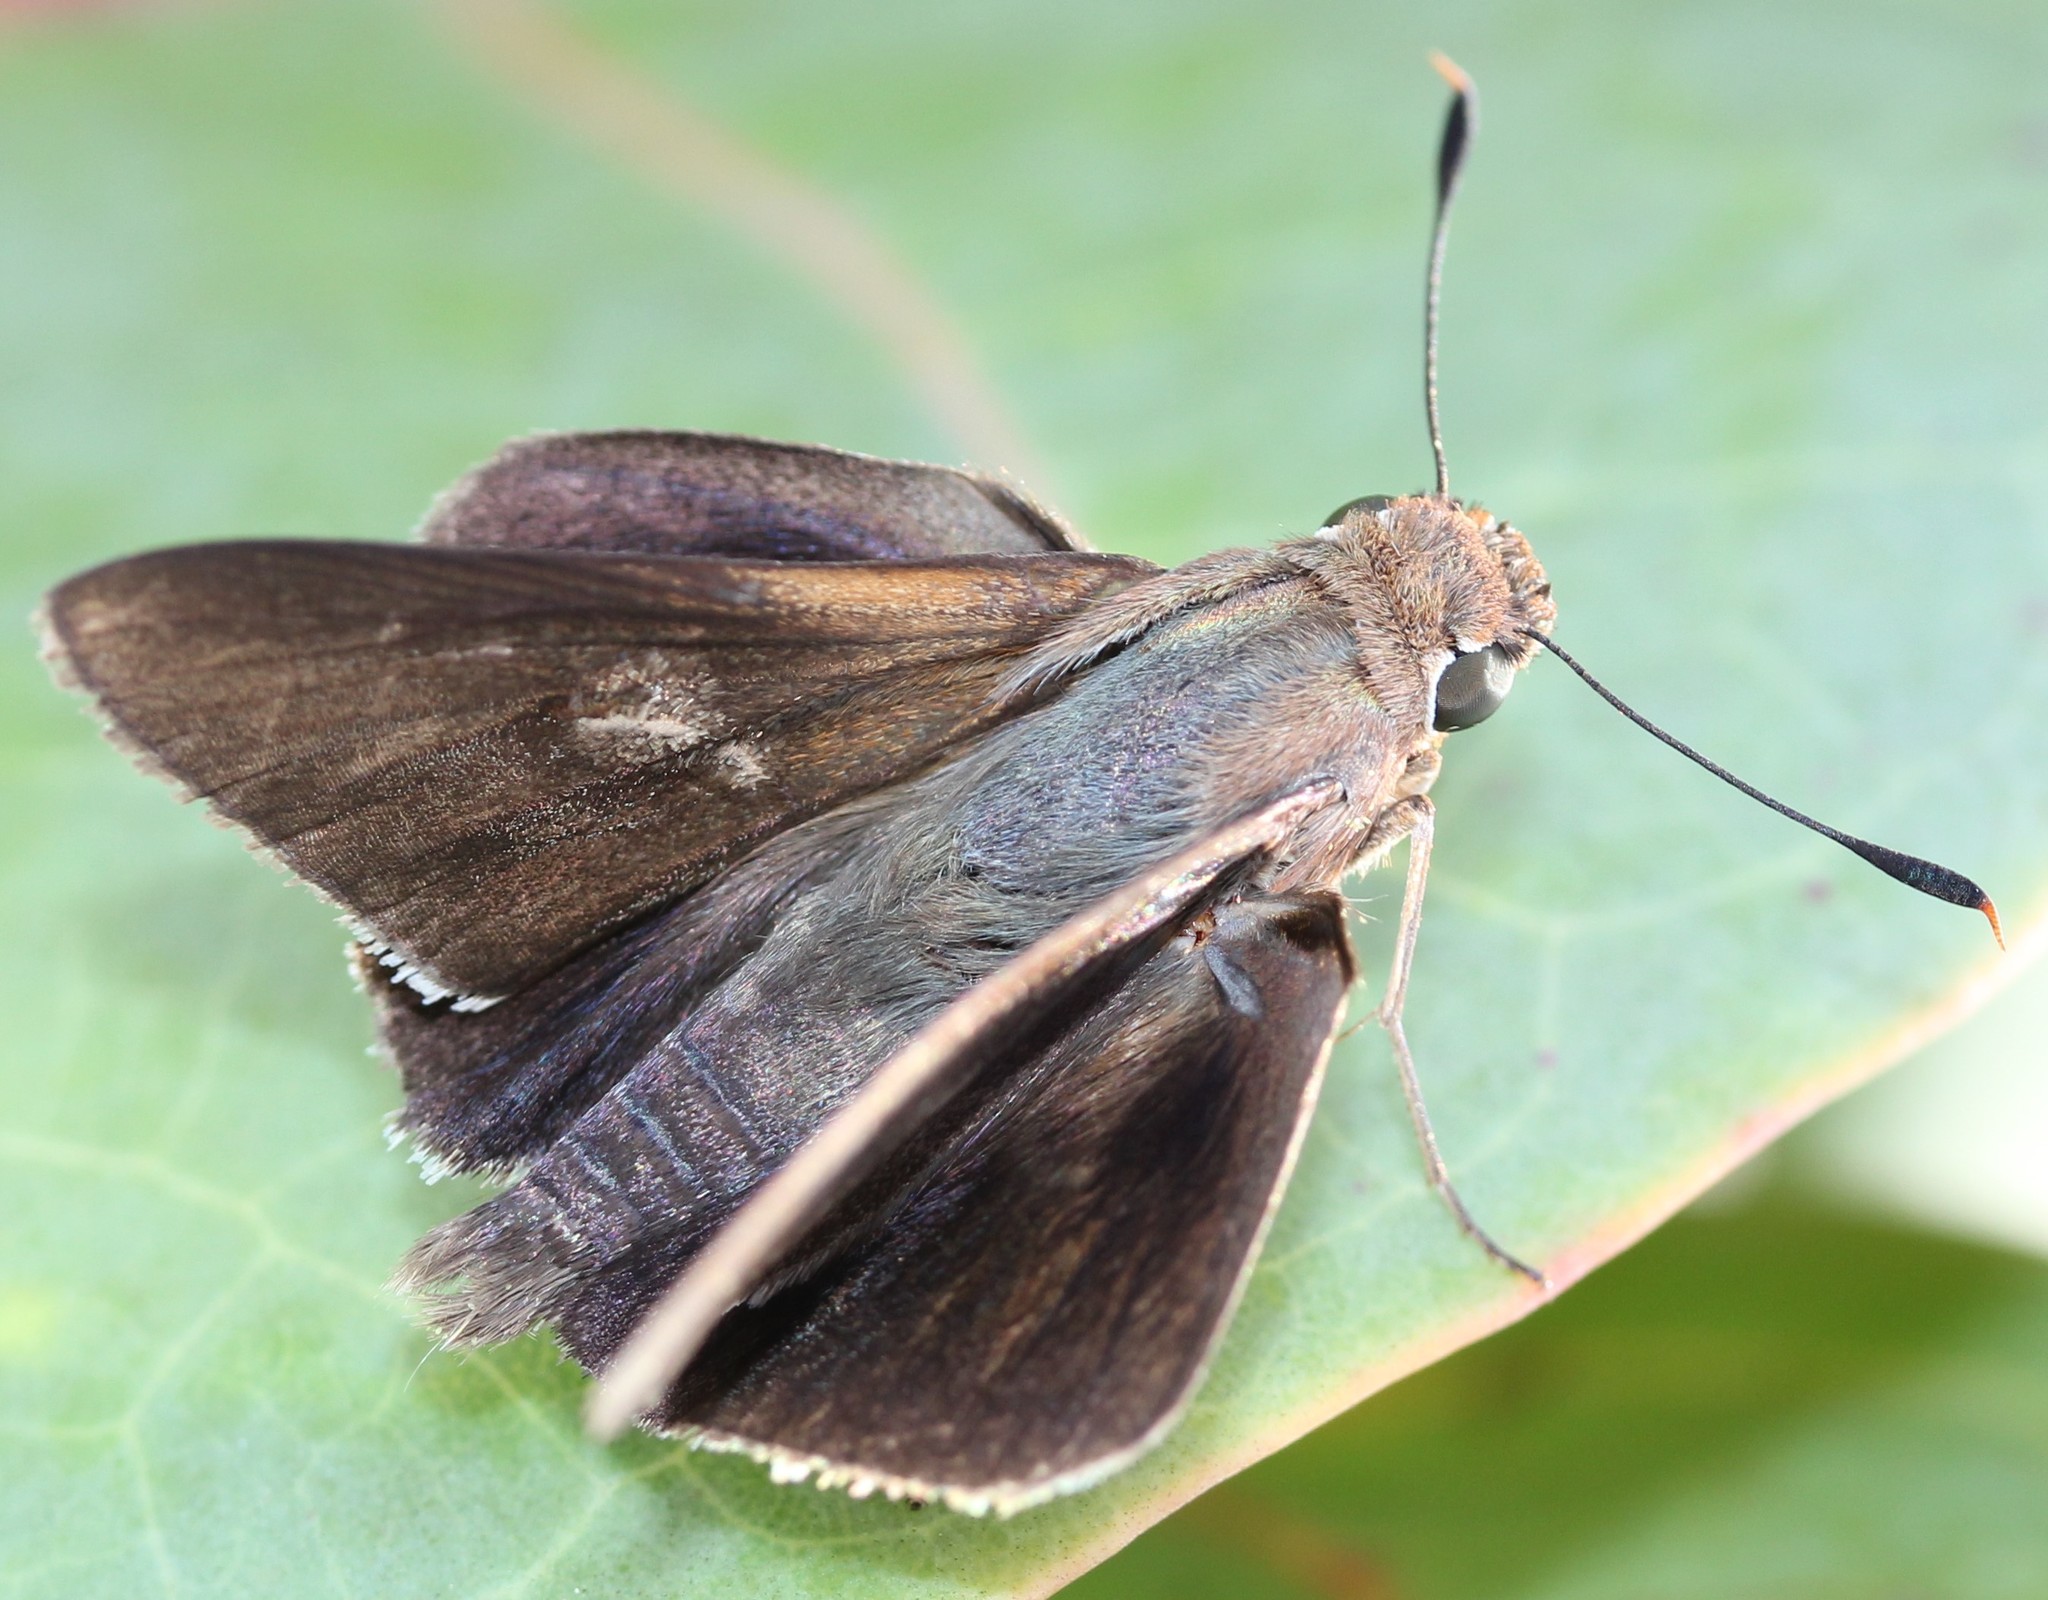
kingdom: Animalia
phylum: Arthropoda
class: Insecta
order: Lepidoptera
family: Hesperiidae
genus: Asbolis
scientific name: Asbolis capucinus
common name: Monk skipper
